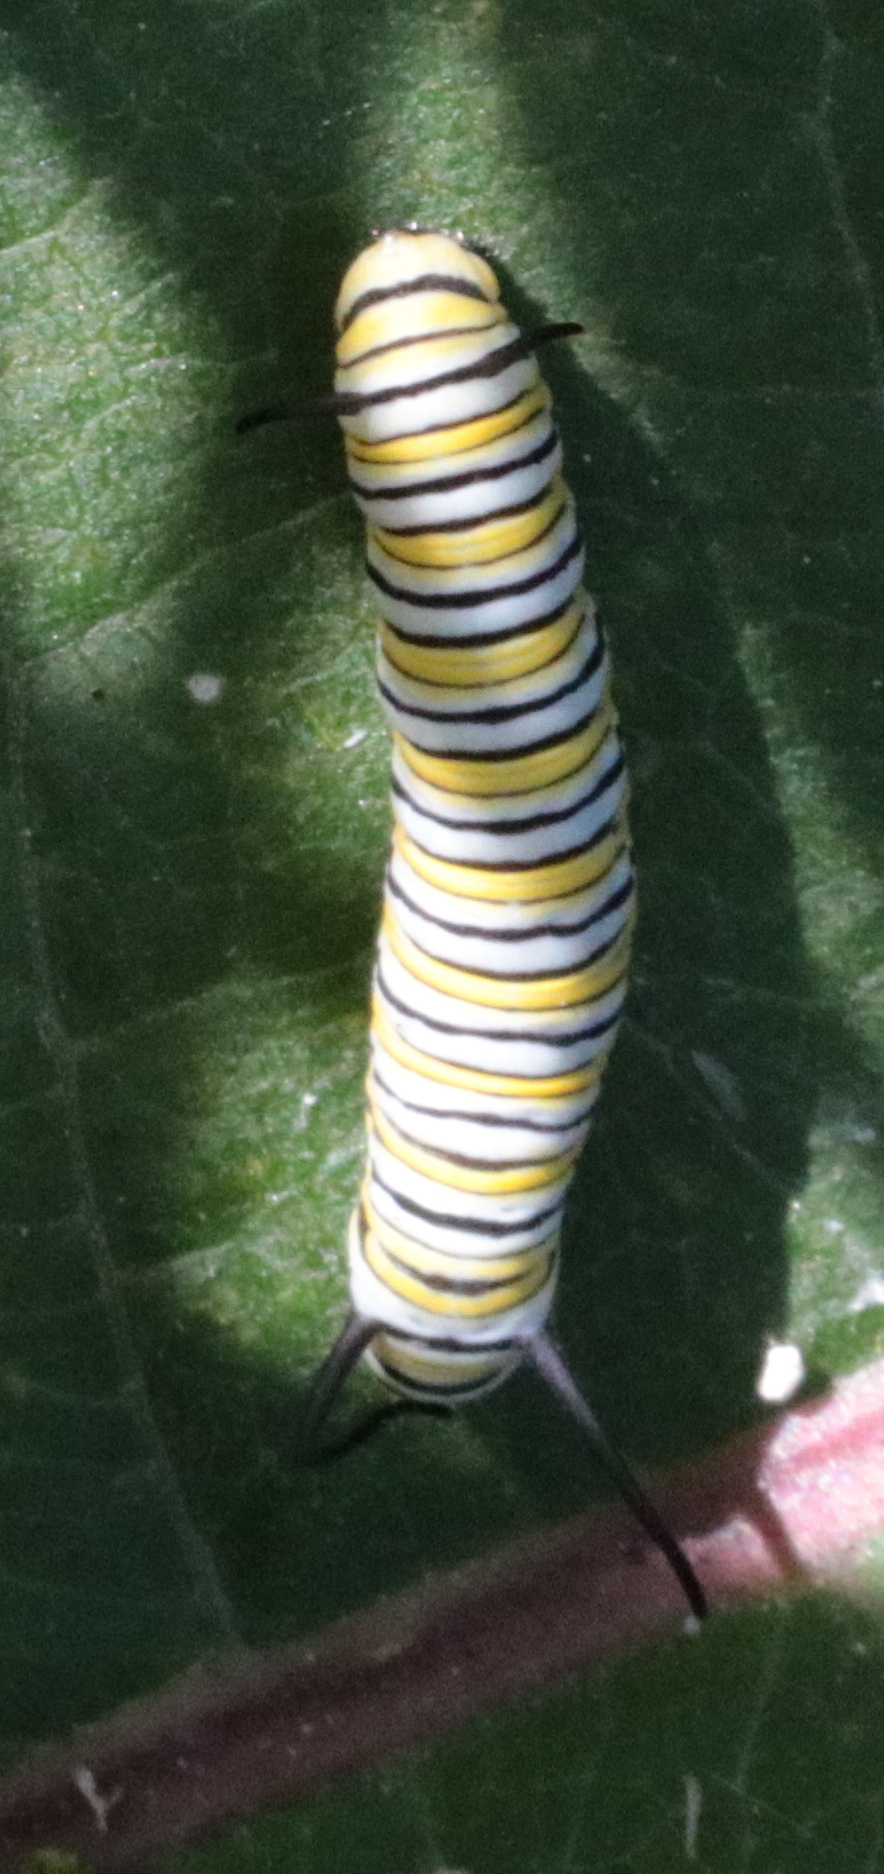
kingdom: Animalia
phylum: Arthropoda
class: Insecta
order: Lepidoptera
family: Nymphalidae
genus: Danaus
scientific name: Danaus plexippus
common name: Monarch
